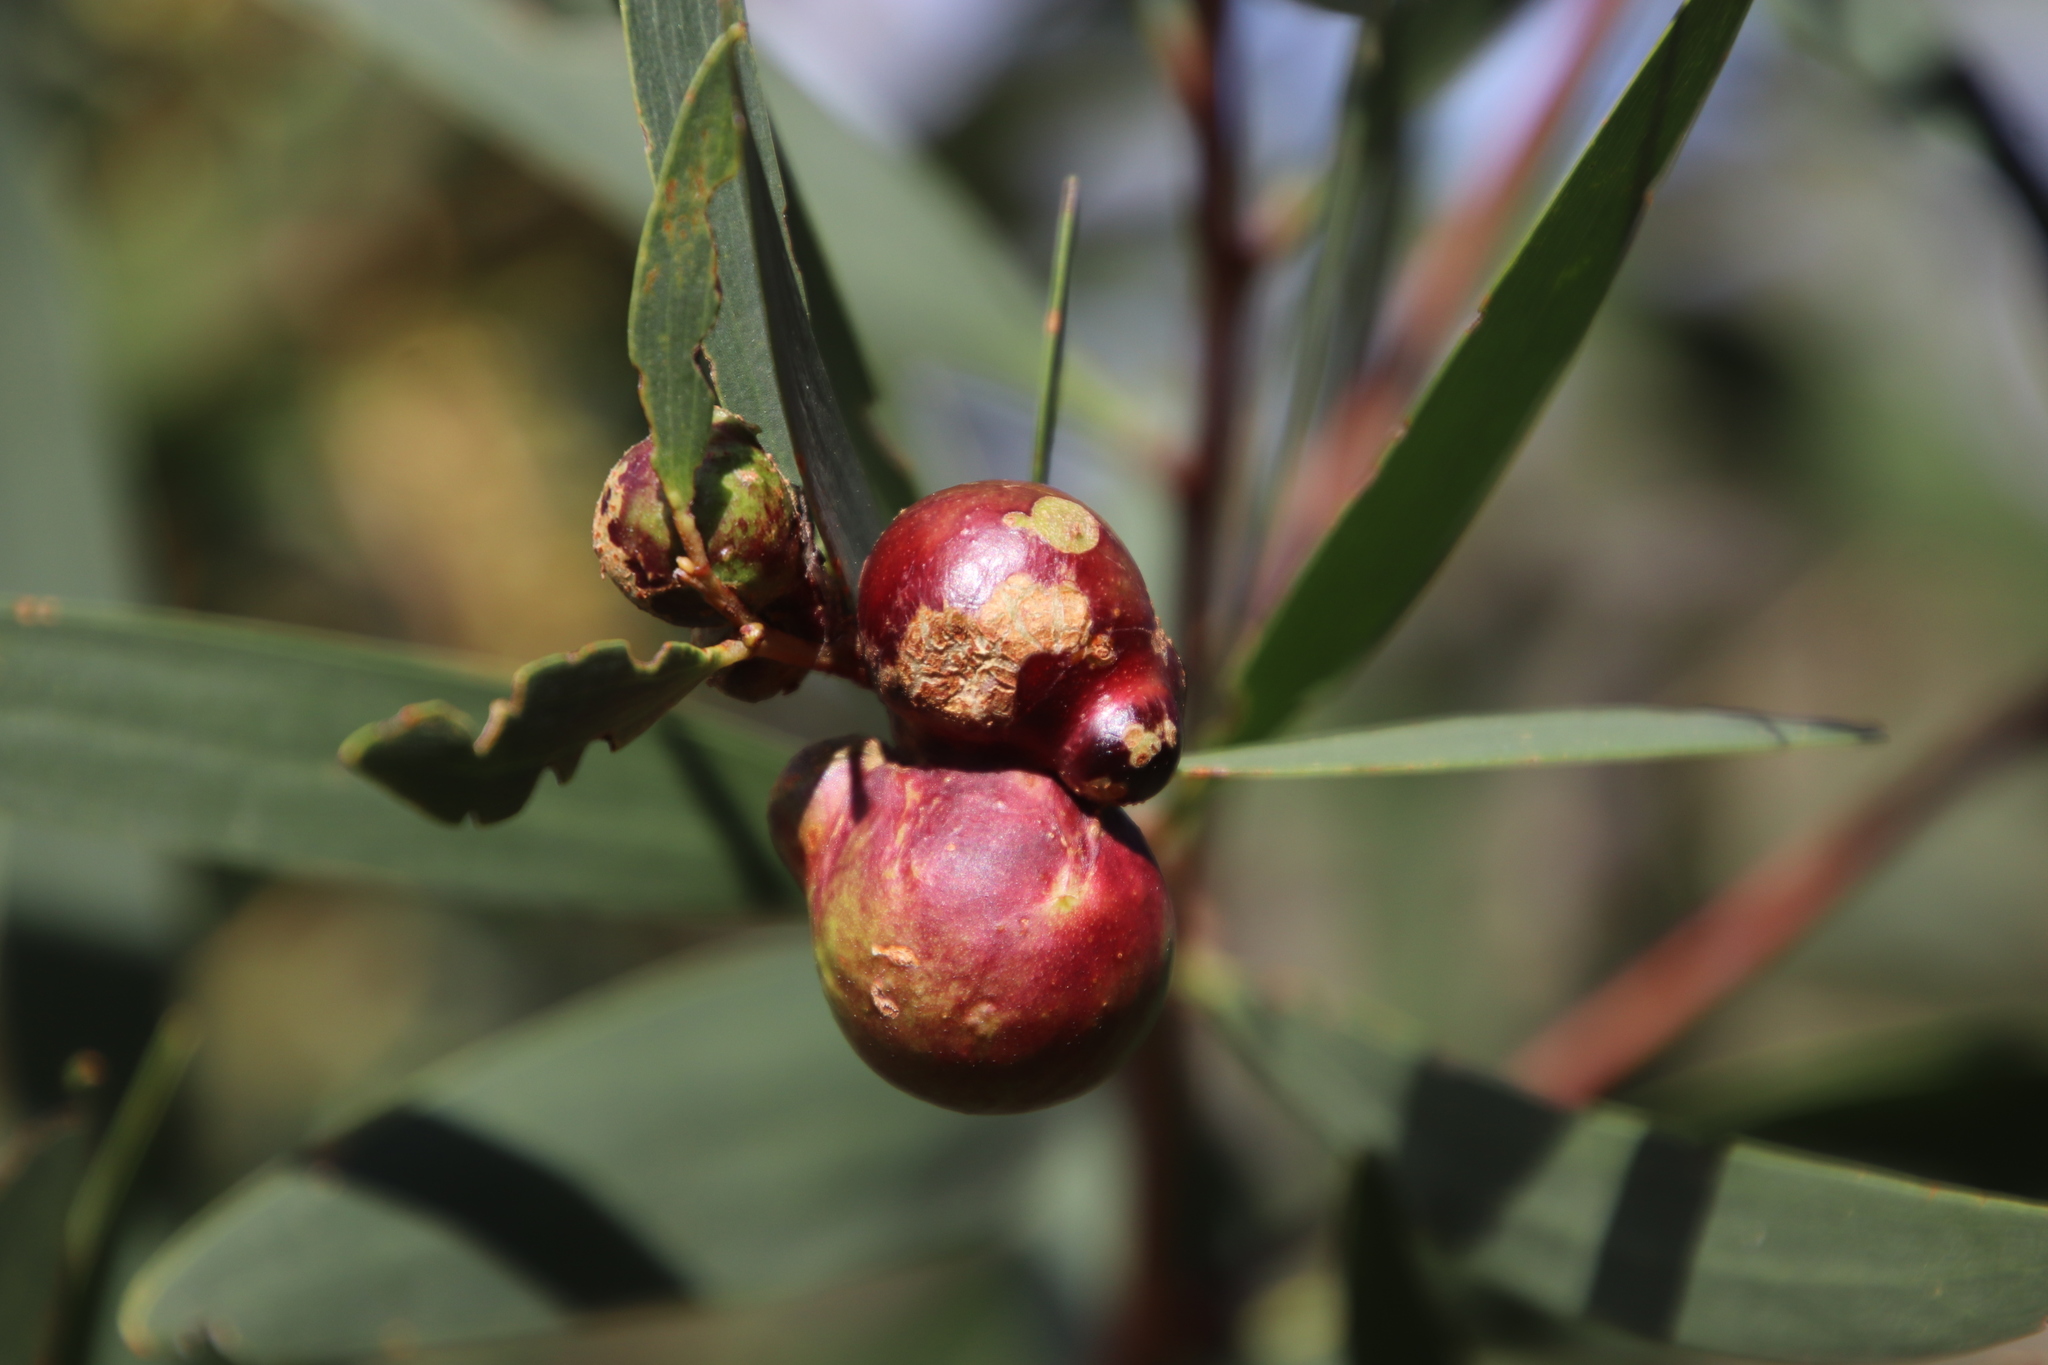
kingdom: Plantae
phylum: Tracheophyta
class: Magnoliopsida
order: Fabales
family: Fabaceae
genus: Acacia
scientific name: Acacia longifolia
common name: Sydney golden wattle
